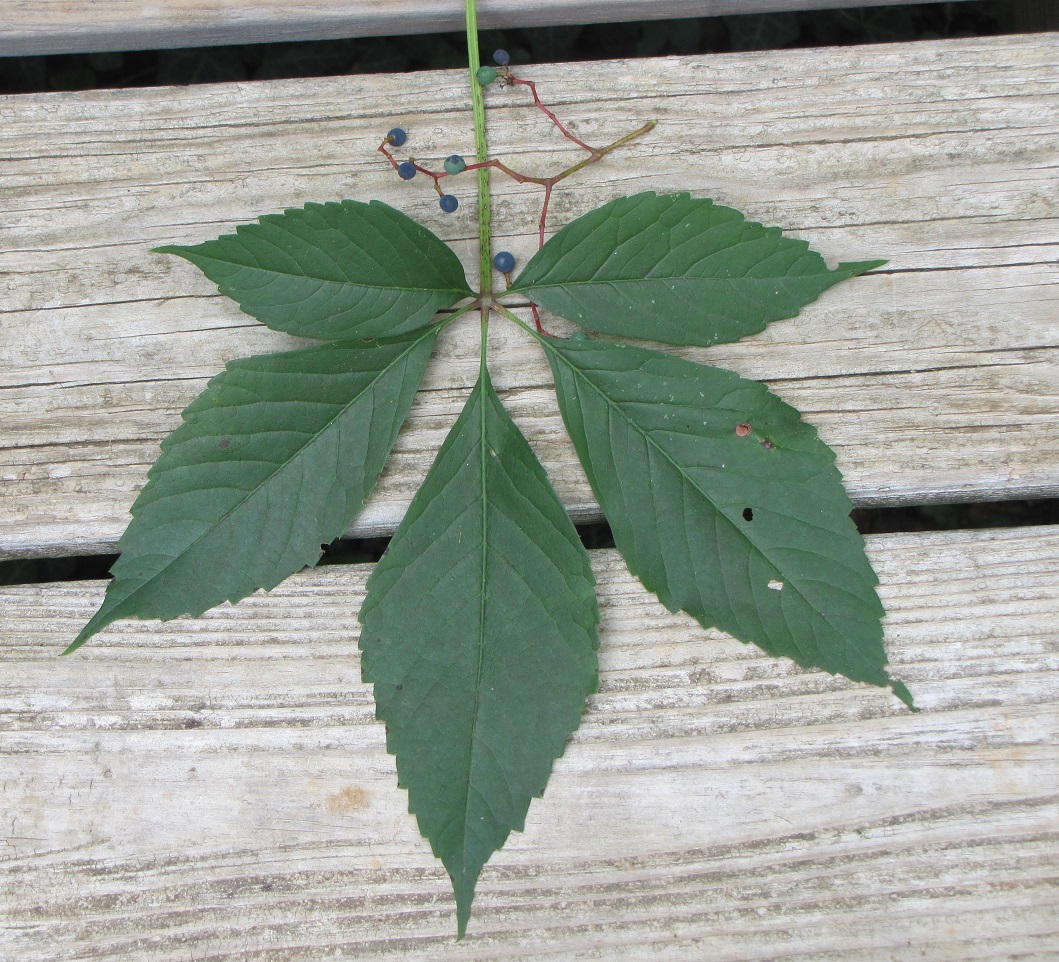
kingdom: Plantae
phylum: Tracheophyta
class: Magnoliopsida
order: Vitales
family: Vitaceae
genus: Parthenocissus
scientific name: Parthenocissus quinquefolia
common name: Virginia-creeper
